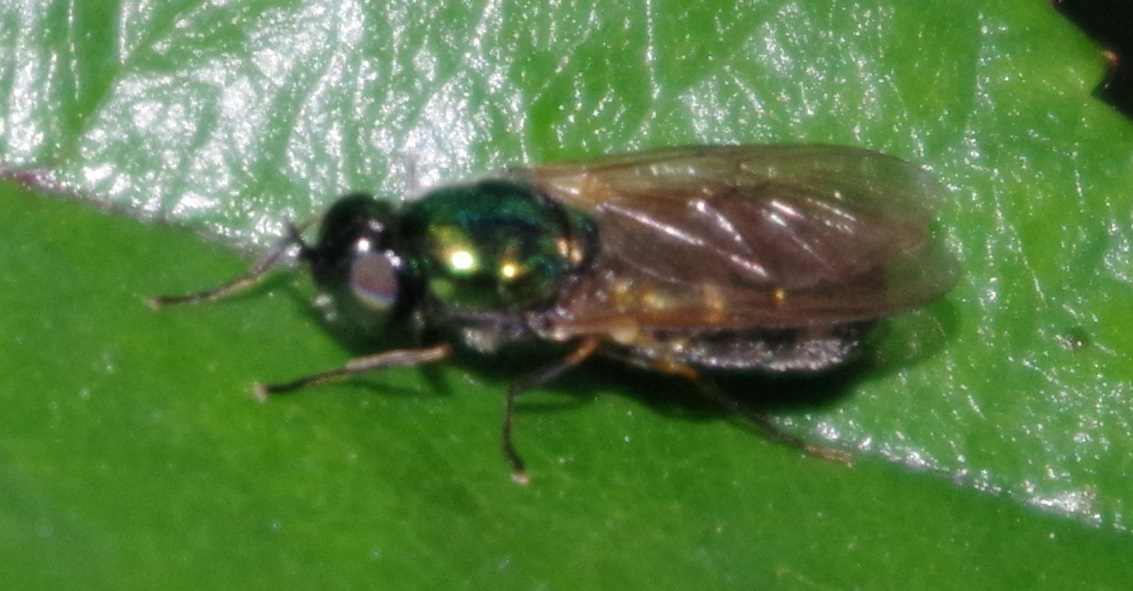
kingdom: Animalia
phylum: Arthropoda
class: Insecta
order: Diptera
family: Stratiomyidae
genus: Chloromyia
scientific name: Chloromyia formosa
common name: Soldier fly
